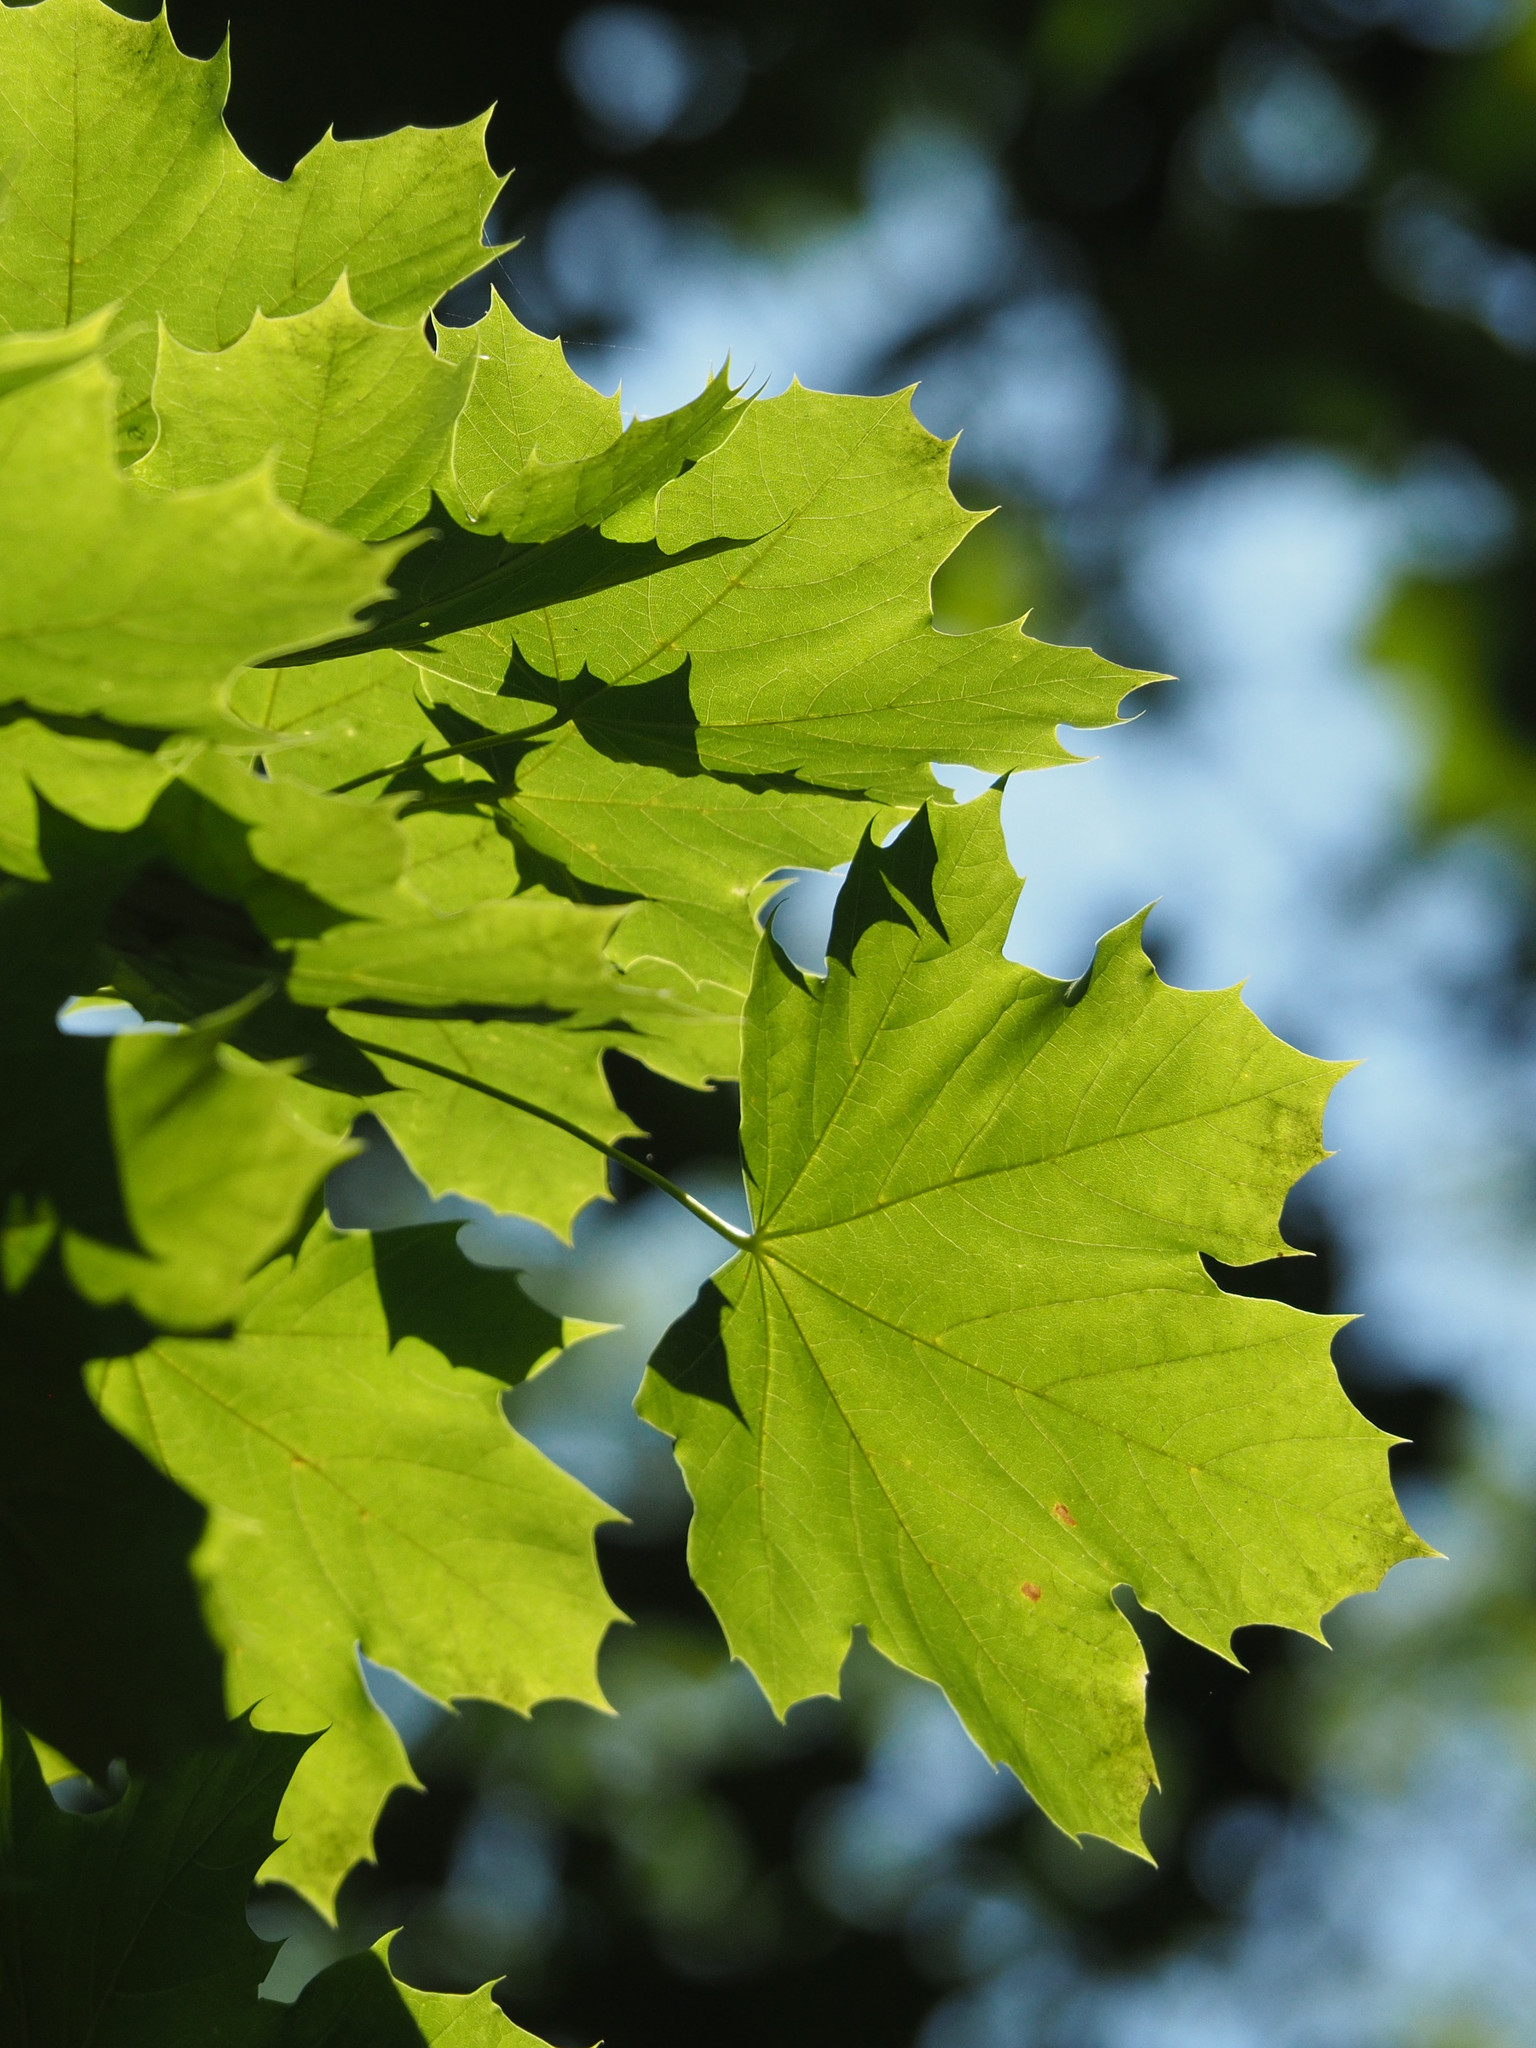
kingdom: Plantae
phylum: Tracheophyta
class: Magnoliopsida
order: Sapindales
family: Sapindaceae
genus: Acer
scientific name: Acer platanoides
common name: Norway maple
